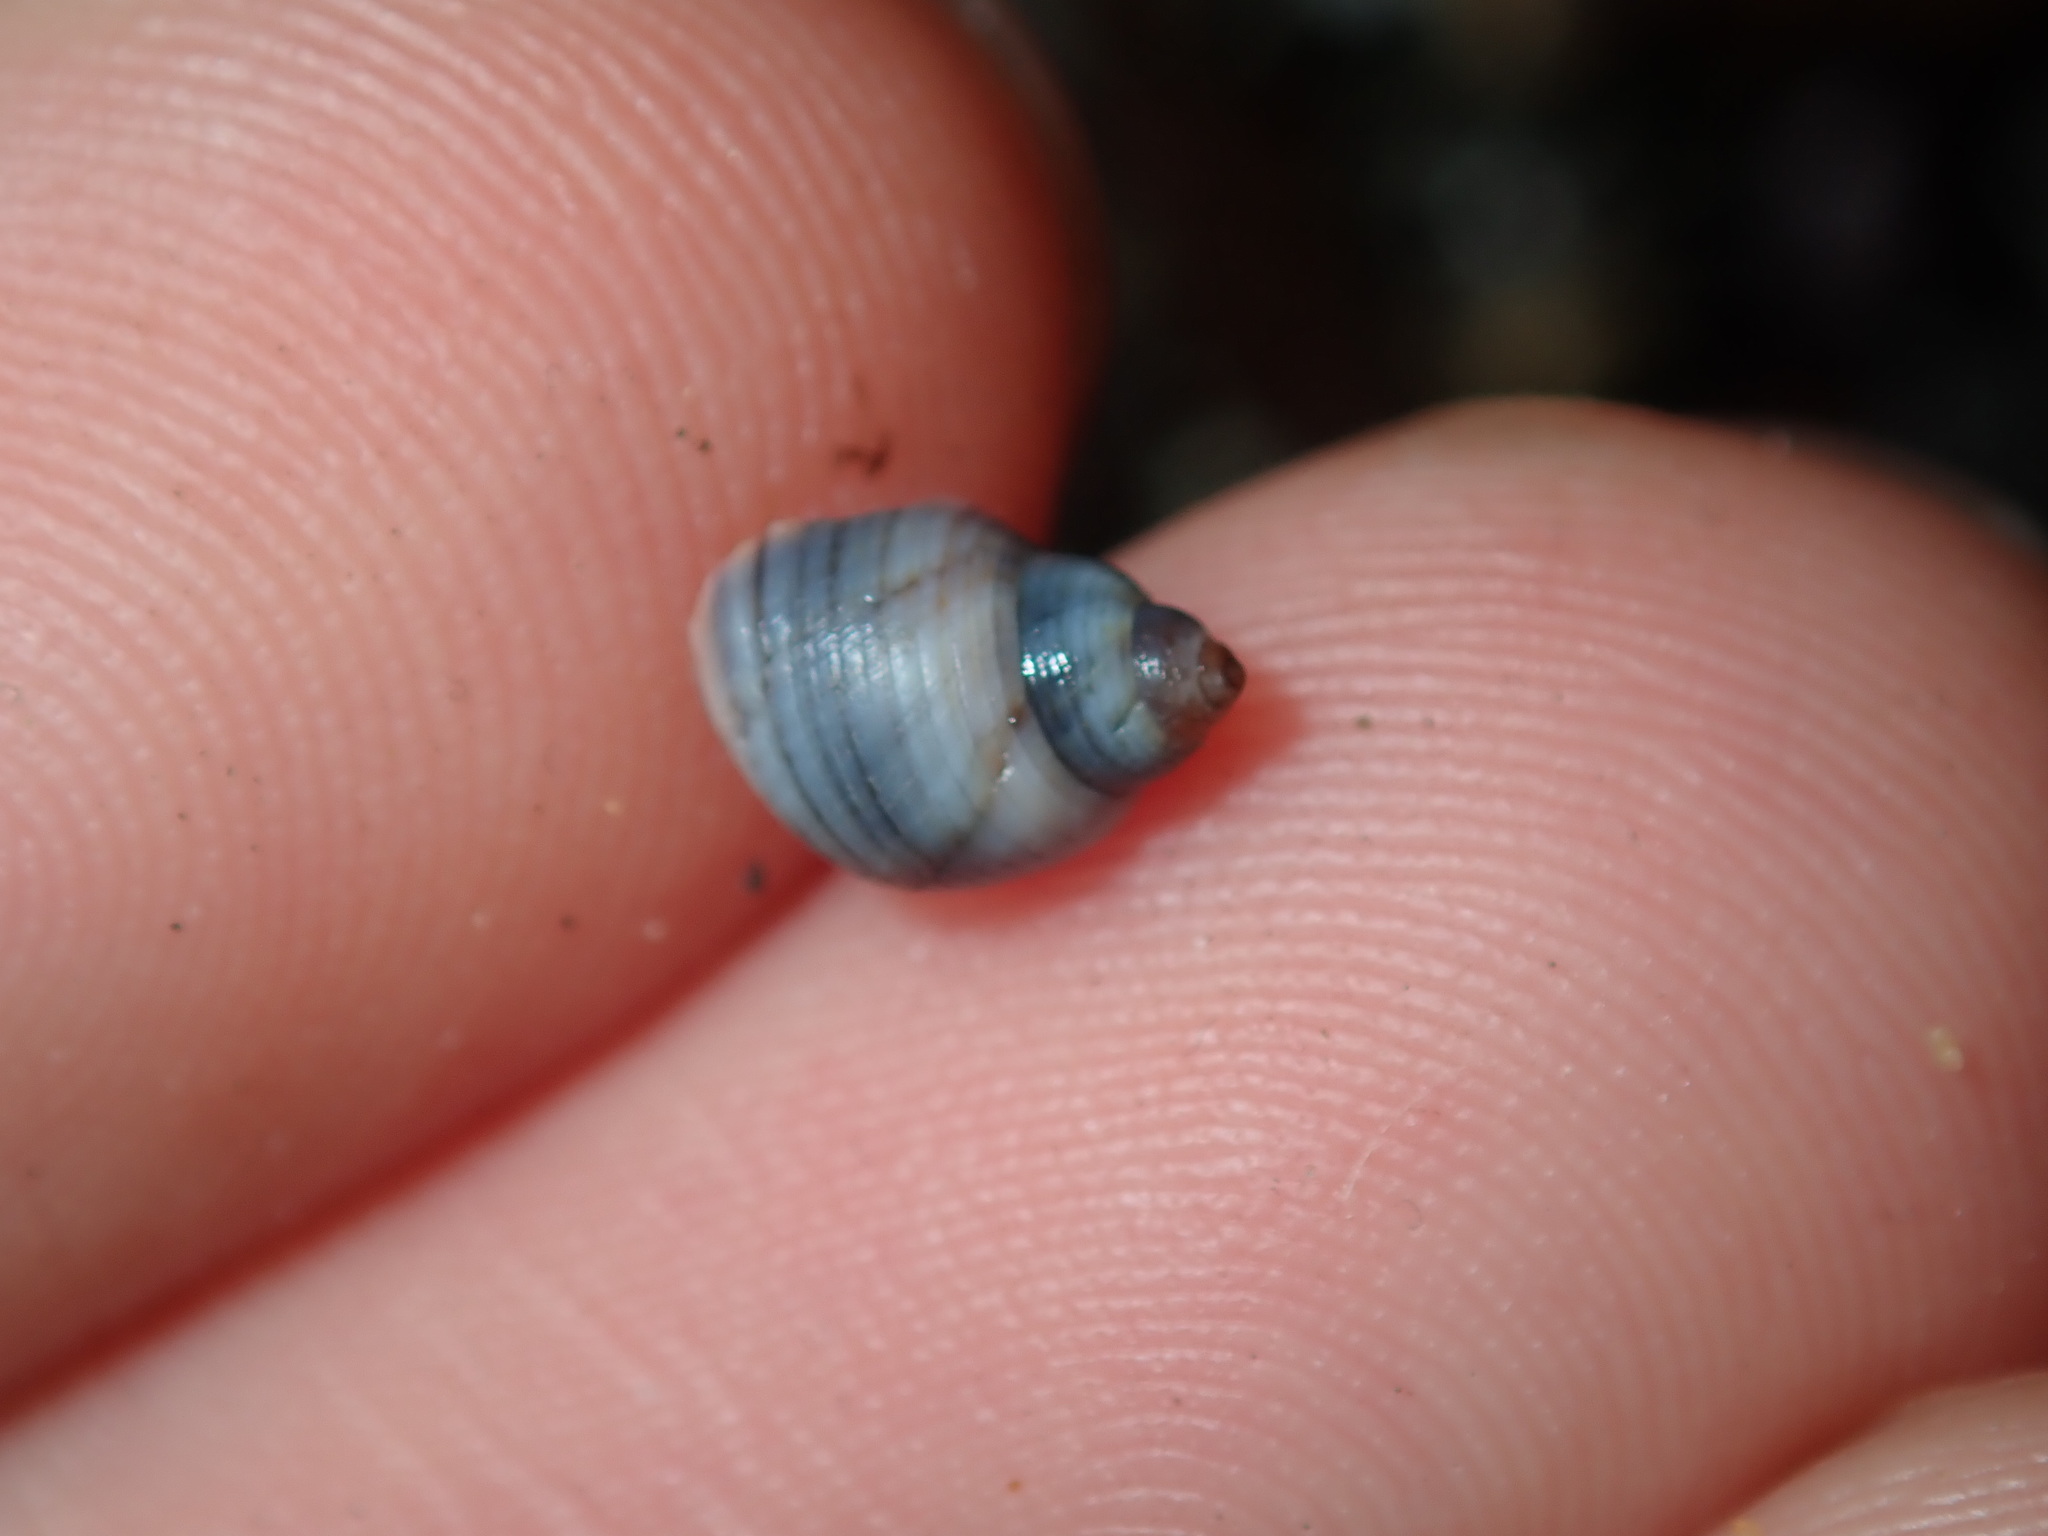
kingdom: Animalia
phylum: Mollusca
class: Gastropoda
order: Littorinimorpha
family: Littorinidae
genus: Austrolittorina
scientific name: Austrolittorina unifasciata
